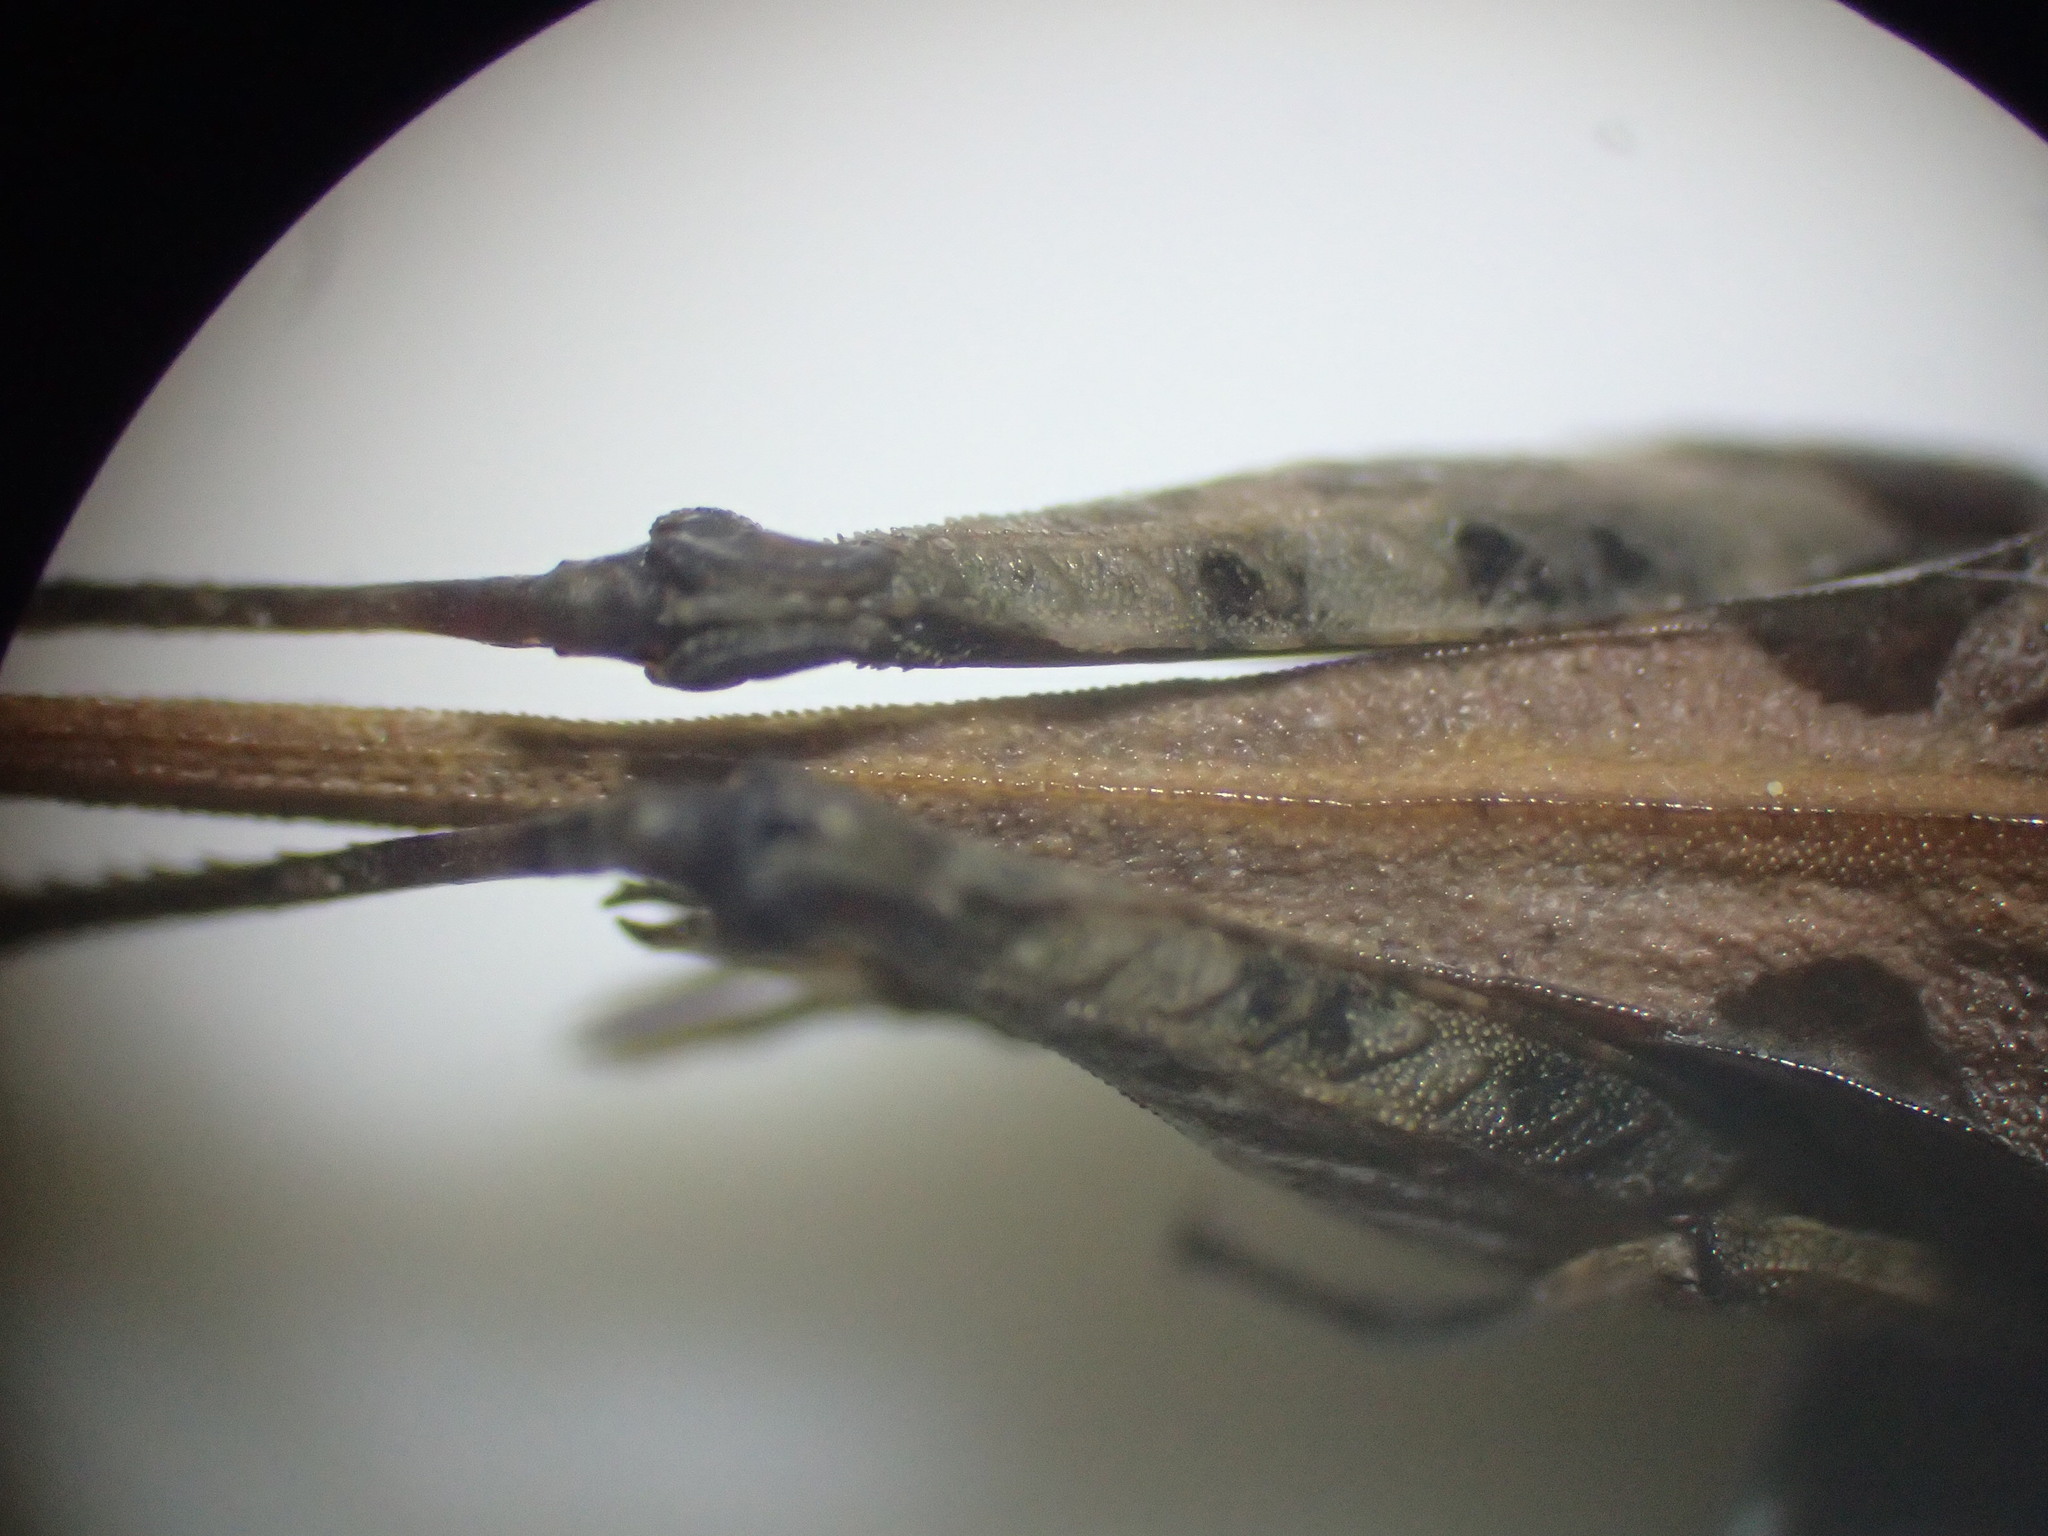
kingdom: Animalia
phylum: Arthropoda
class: Insecta
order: Orthoptera
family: Tetrigidae
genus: Tetrix
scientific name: Tetrix ceperoi
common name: Cepero's ground-hopper
